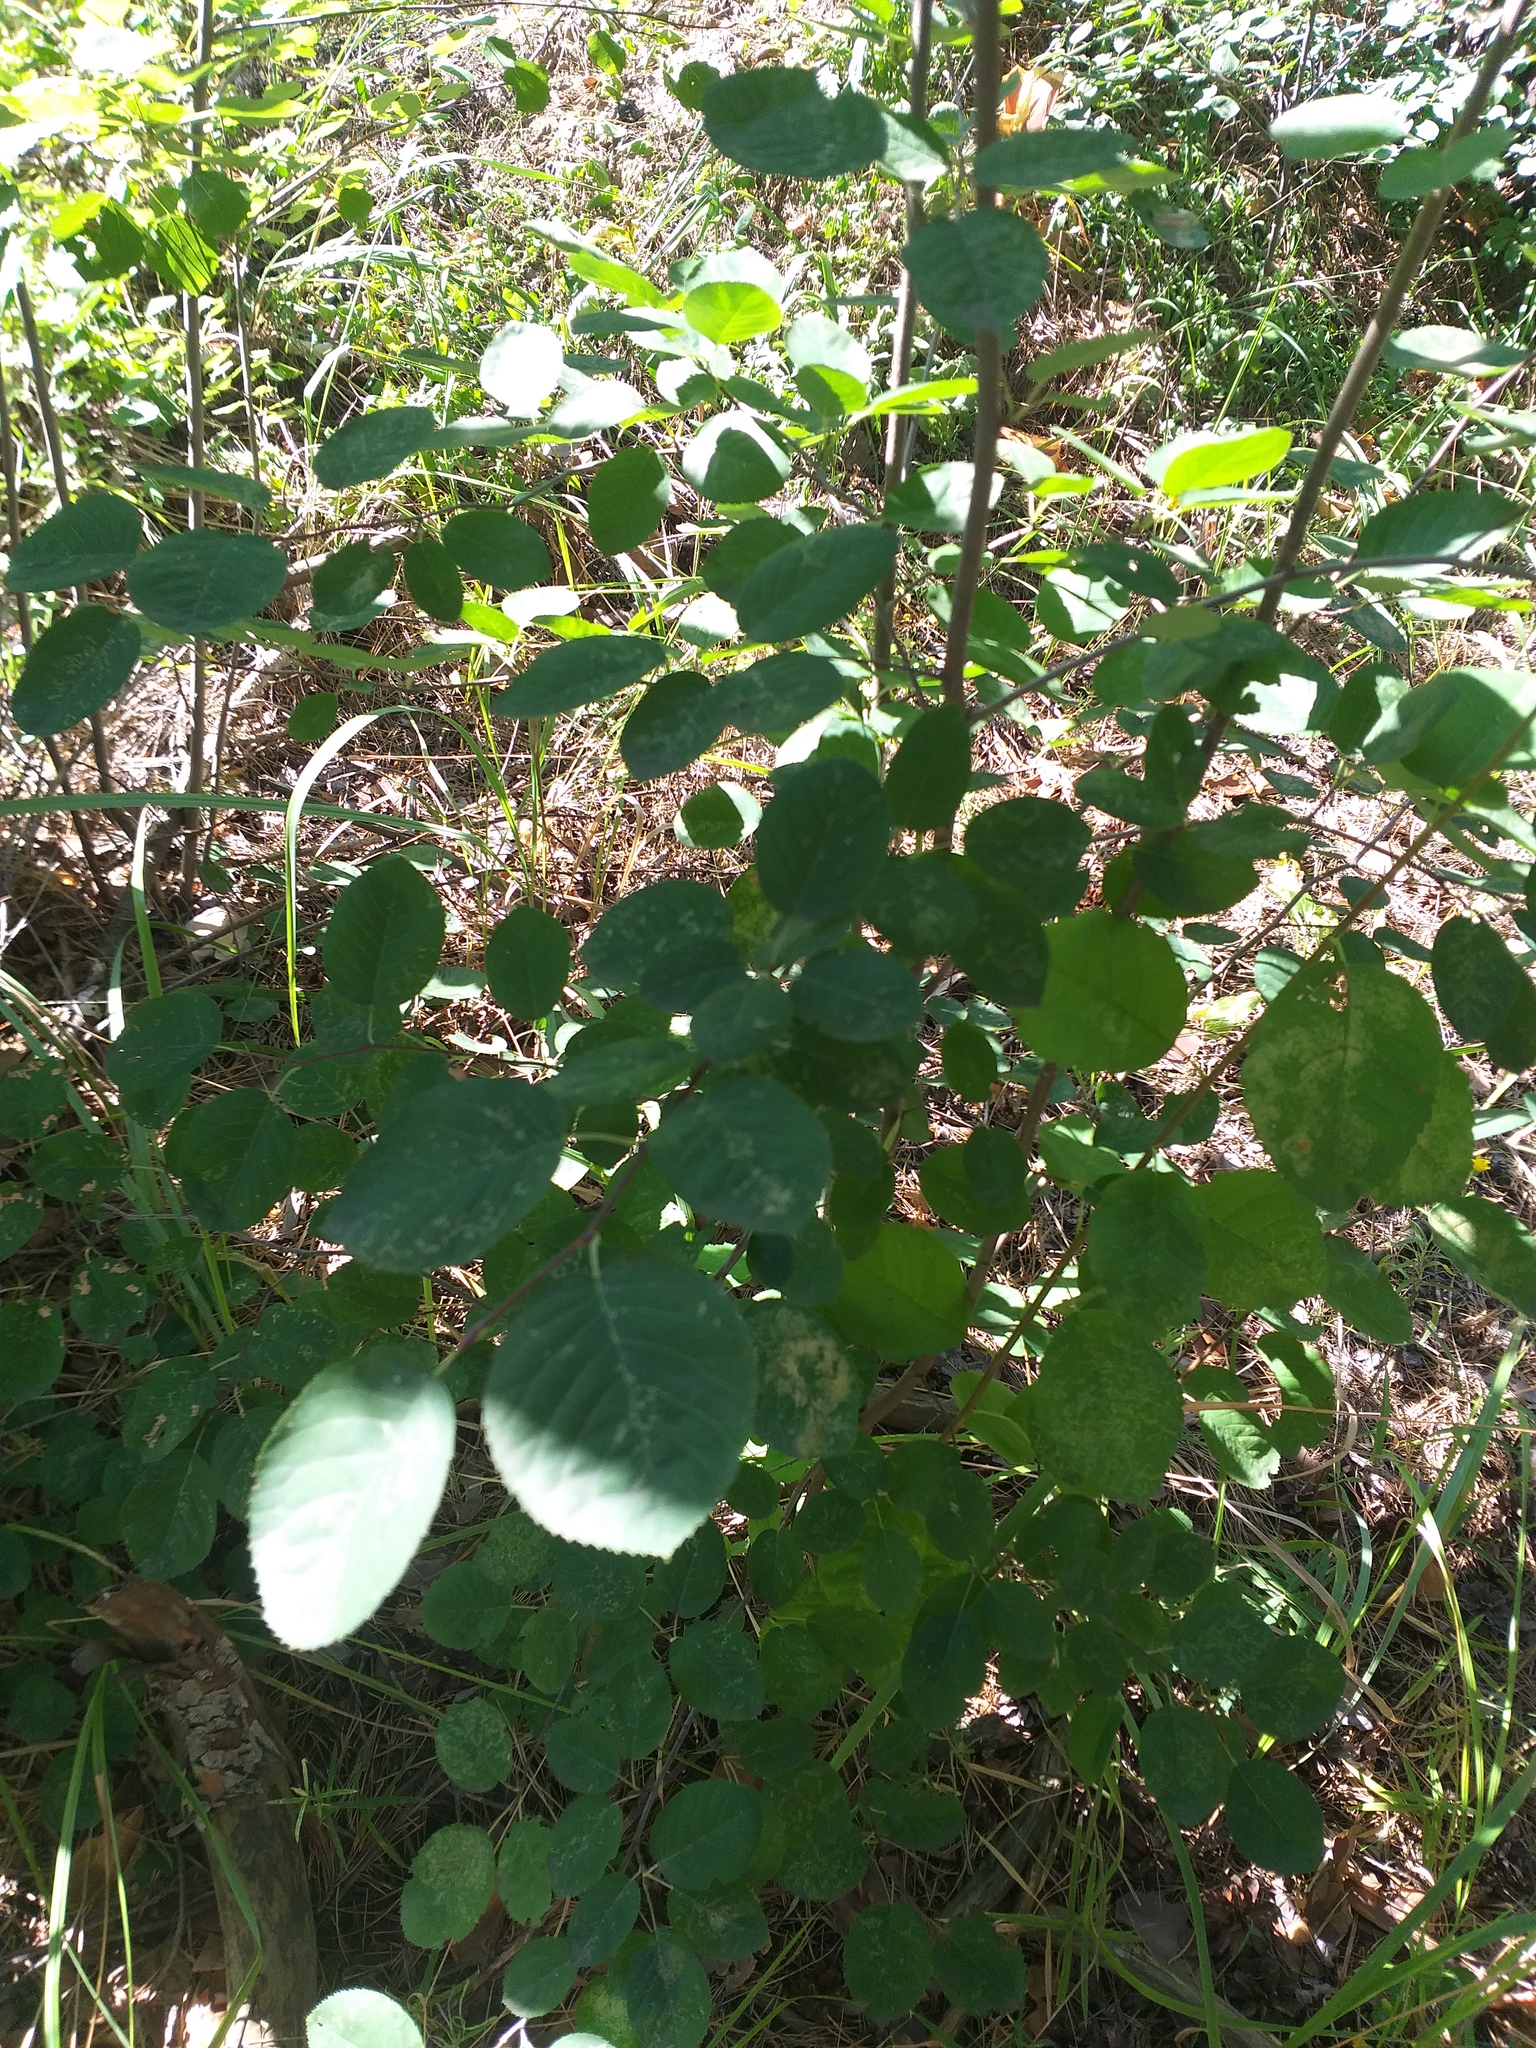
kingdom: Plantae
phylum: Tracheophyta
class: Magnoliopsida
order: Rosales
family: Rosaceae
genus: Amelanchier
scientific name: Amelanchier
